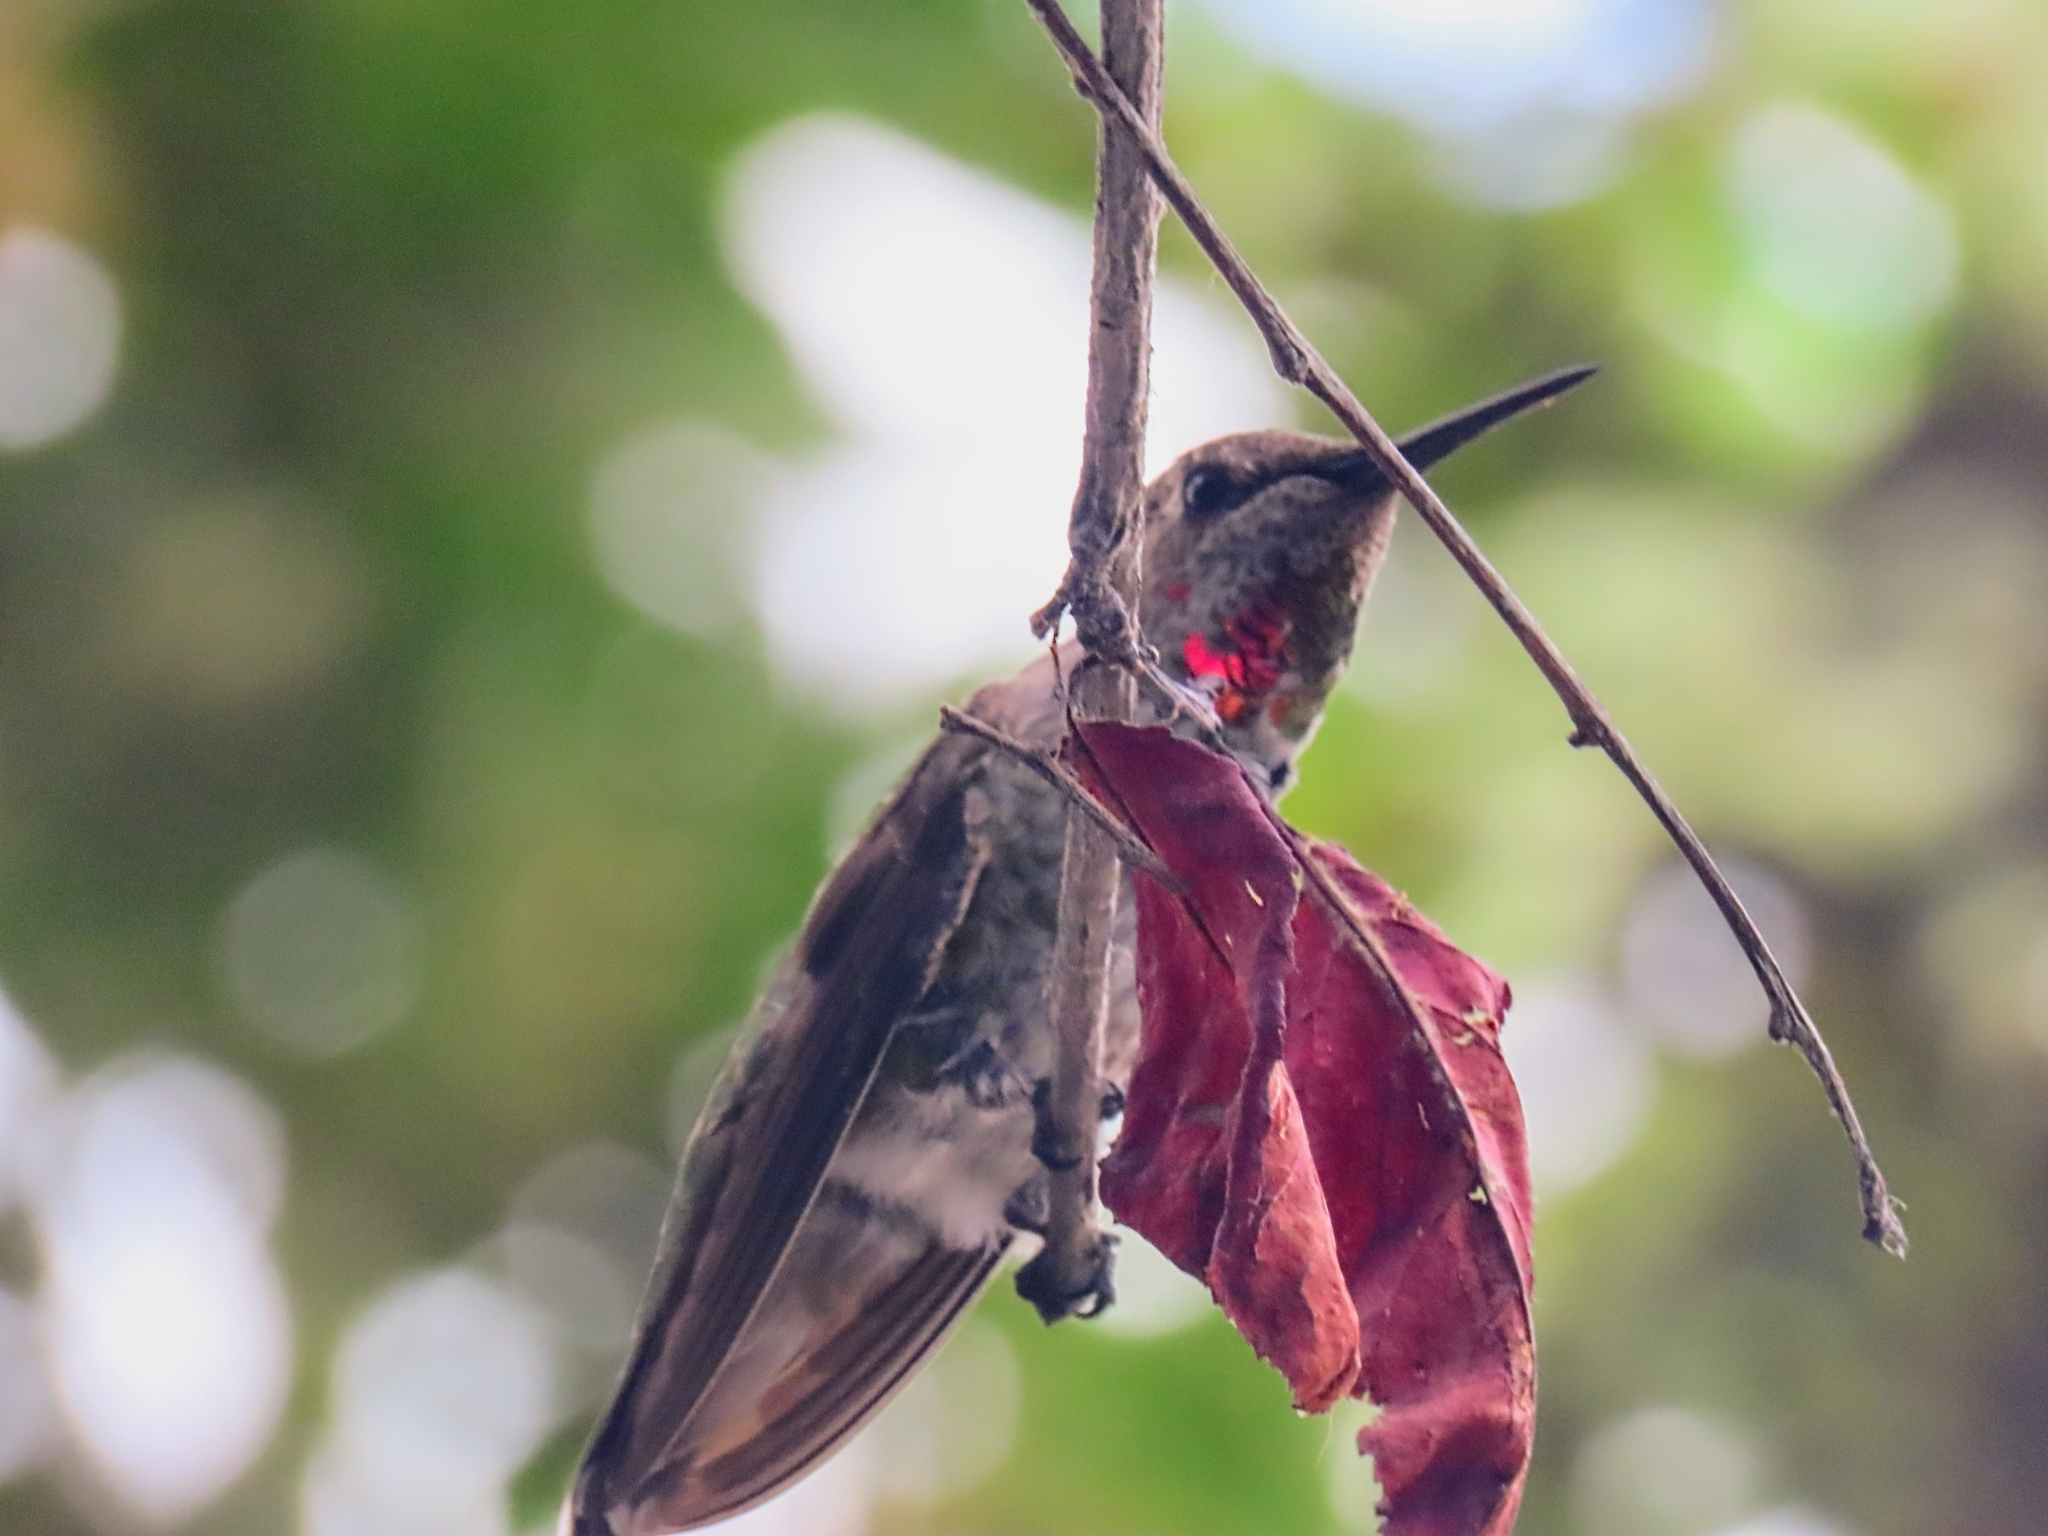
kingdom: Animalia
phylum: Chordata
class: Aves
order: Apodiformes
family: Trochilidae
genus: Calypte
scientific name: Calypte anna
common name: Anna's hummingbird
